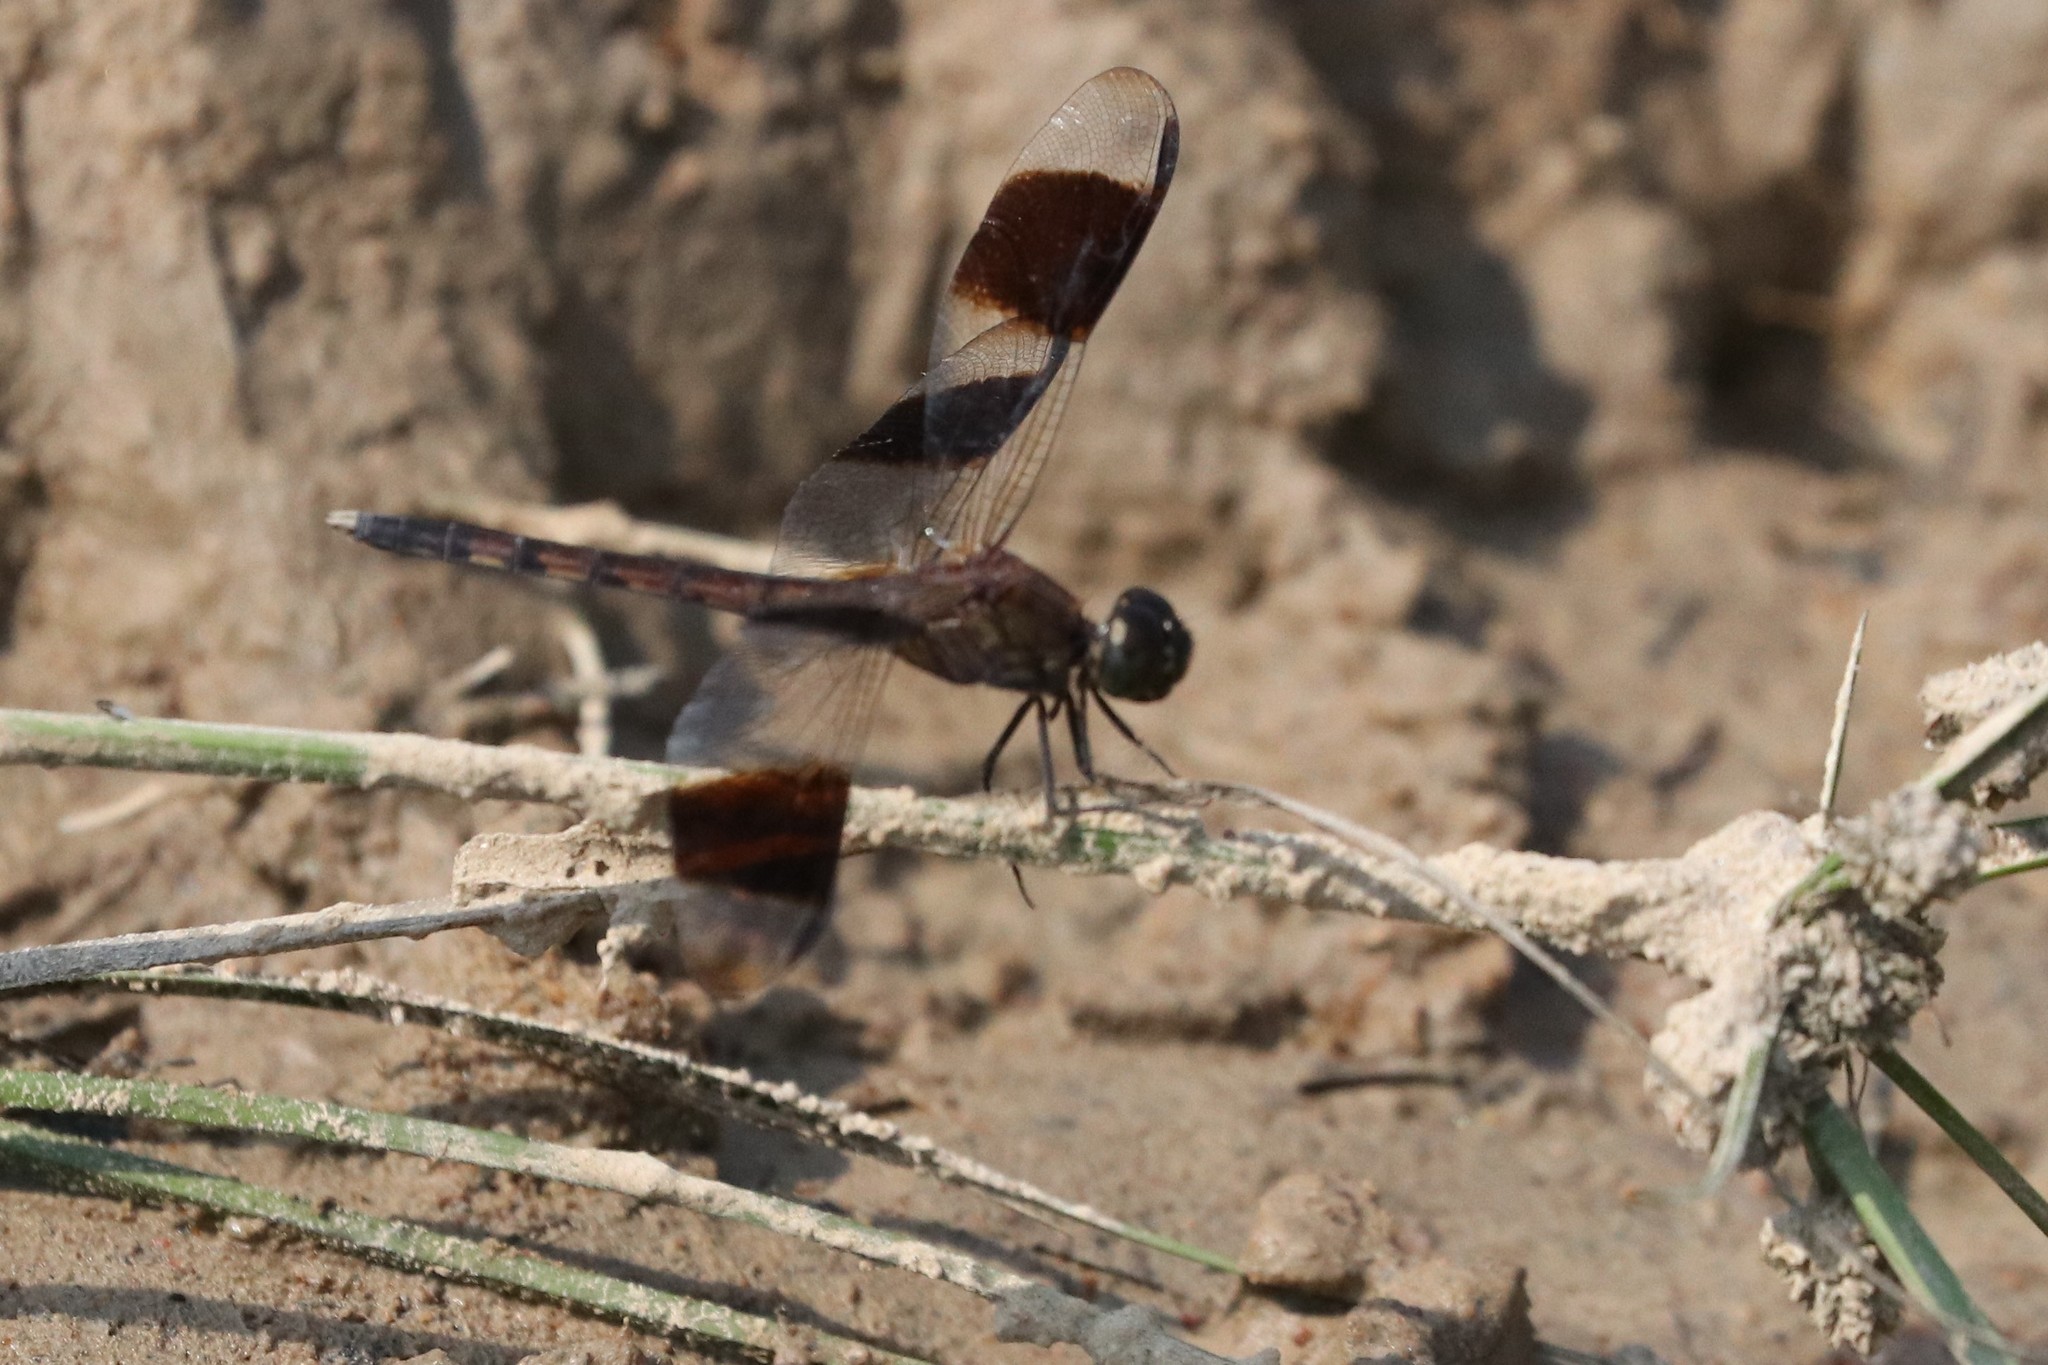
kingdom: Animalia
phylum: Arthropoda
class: Insecta
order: Odonata
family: Libellulidae
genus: Erythrodiplax
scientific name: Erythrodiplax umbrata
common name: Band-winged dragonlet
